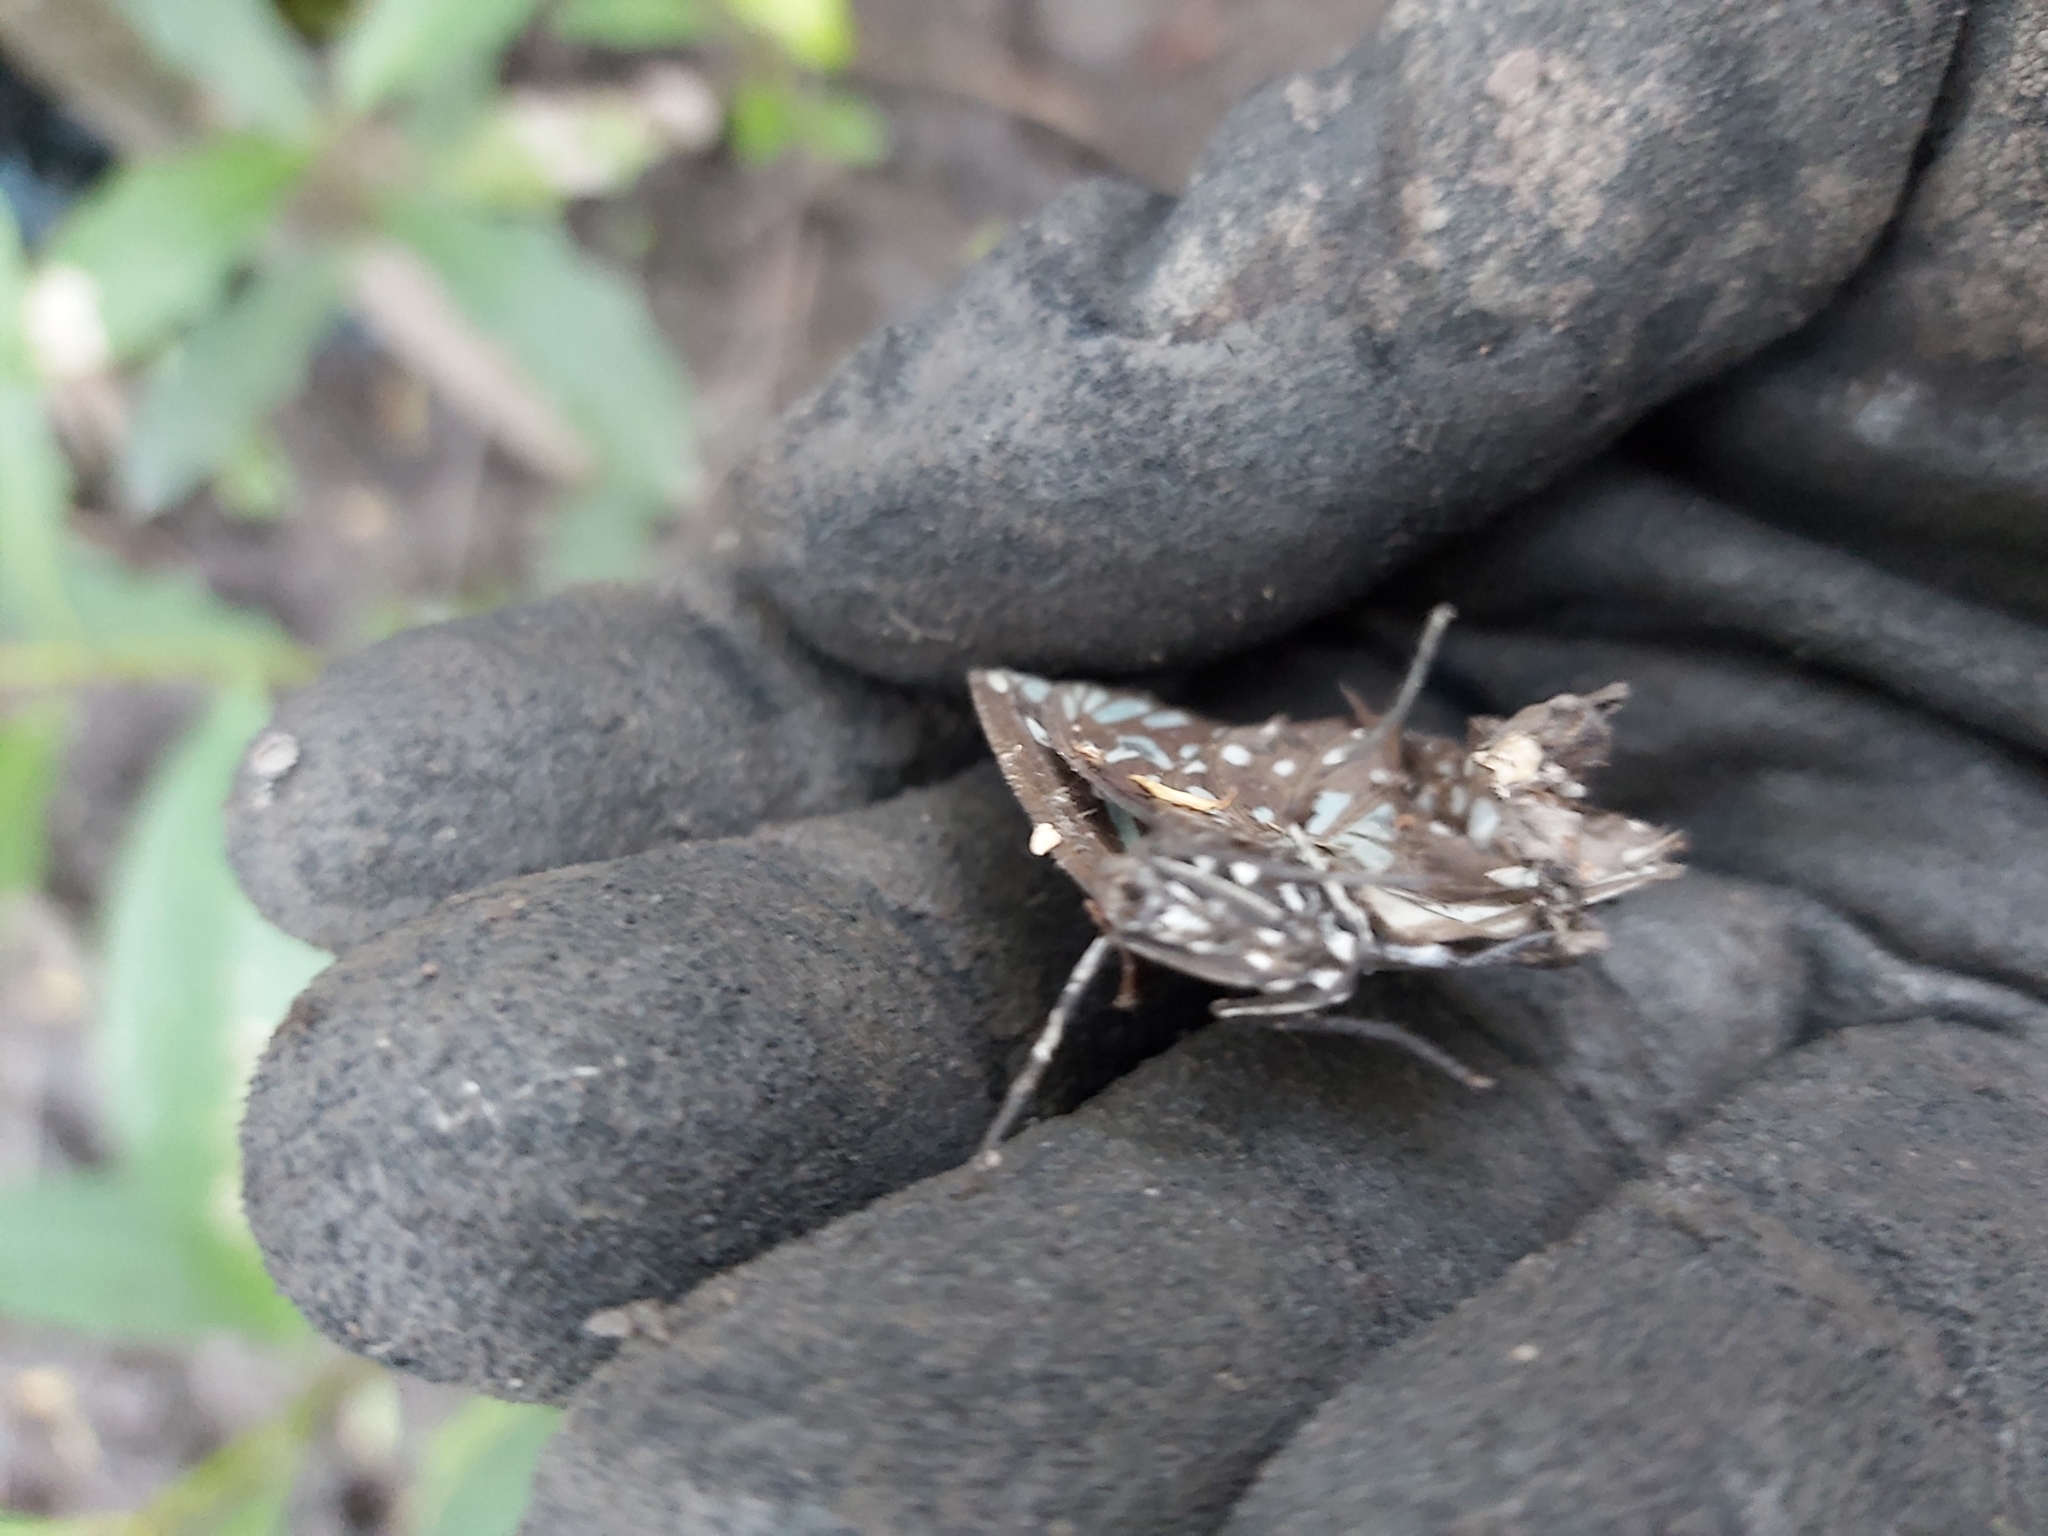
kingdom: Animalia
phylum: Arthropoda
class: Insecta
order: Lepidoptera
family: Nymphalidae
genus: Tirumala
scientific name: Tirumala hamata
